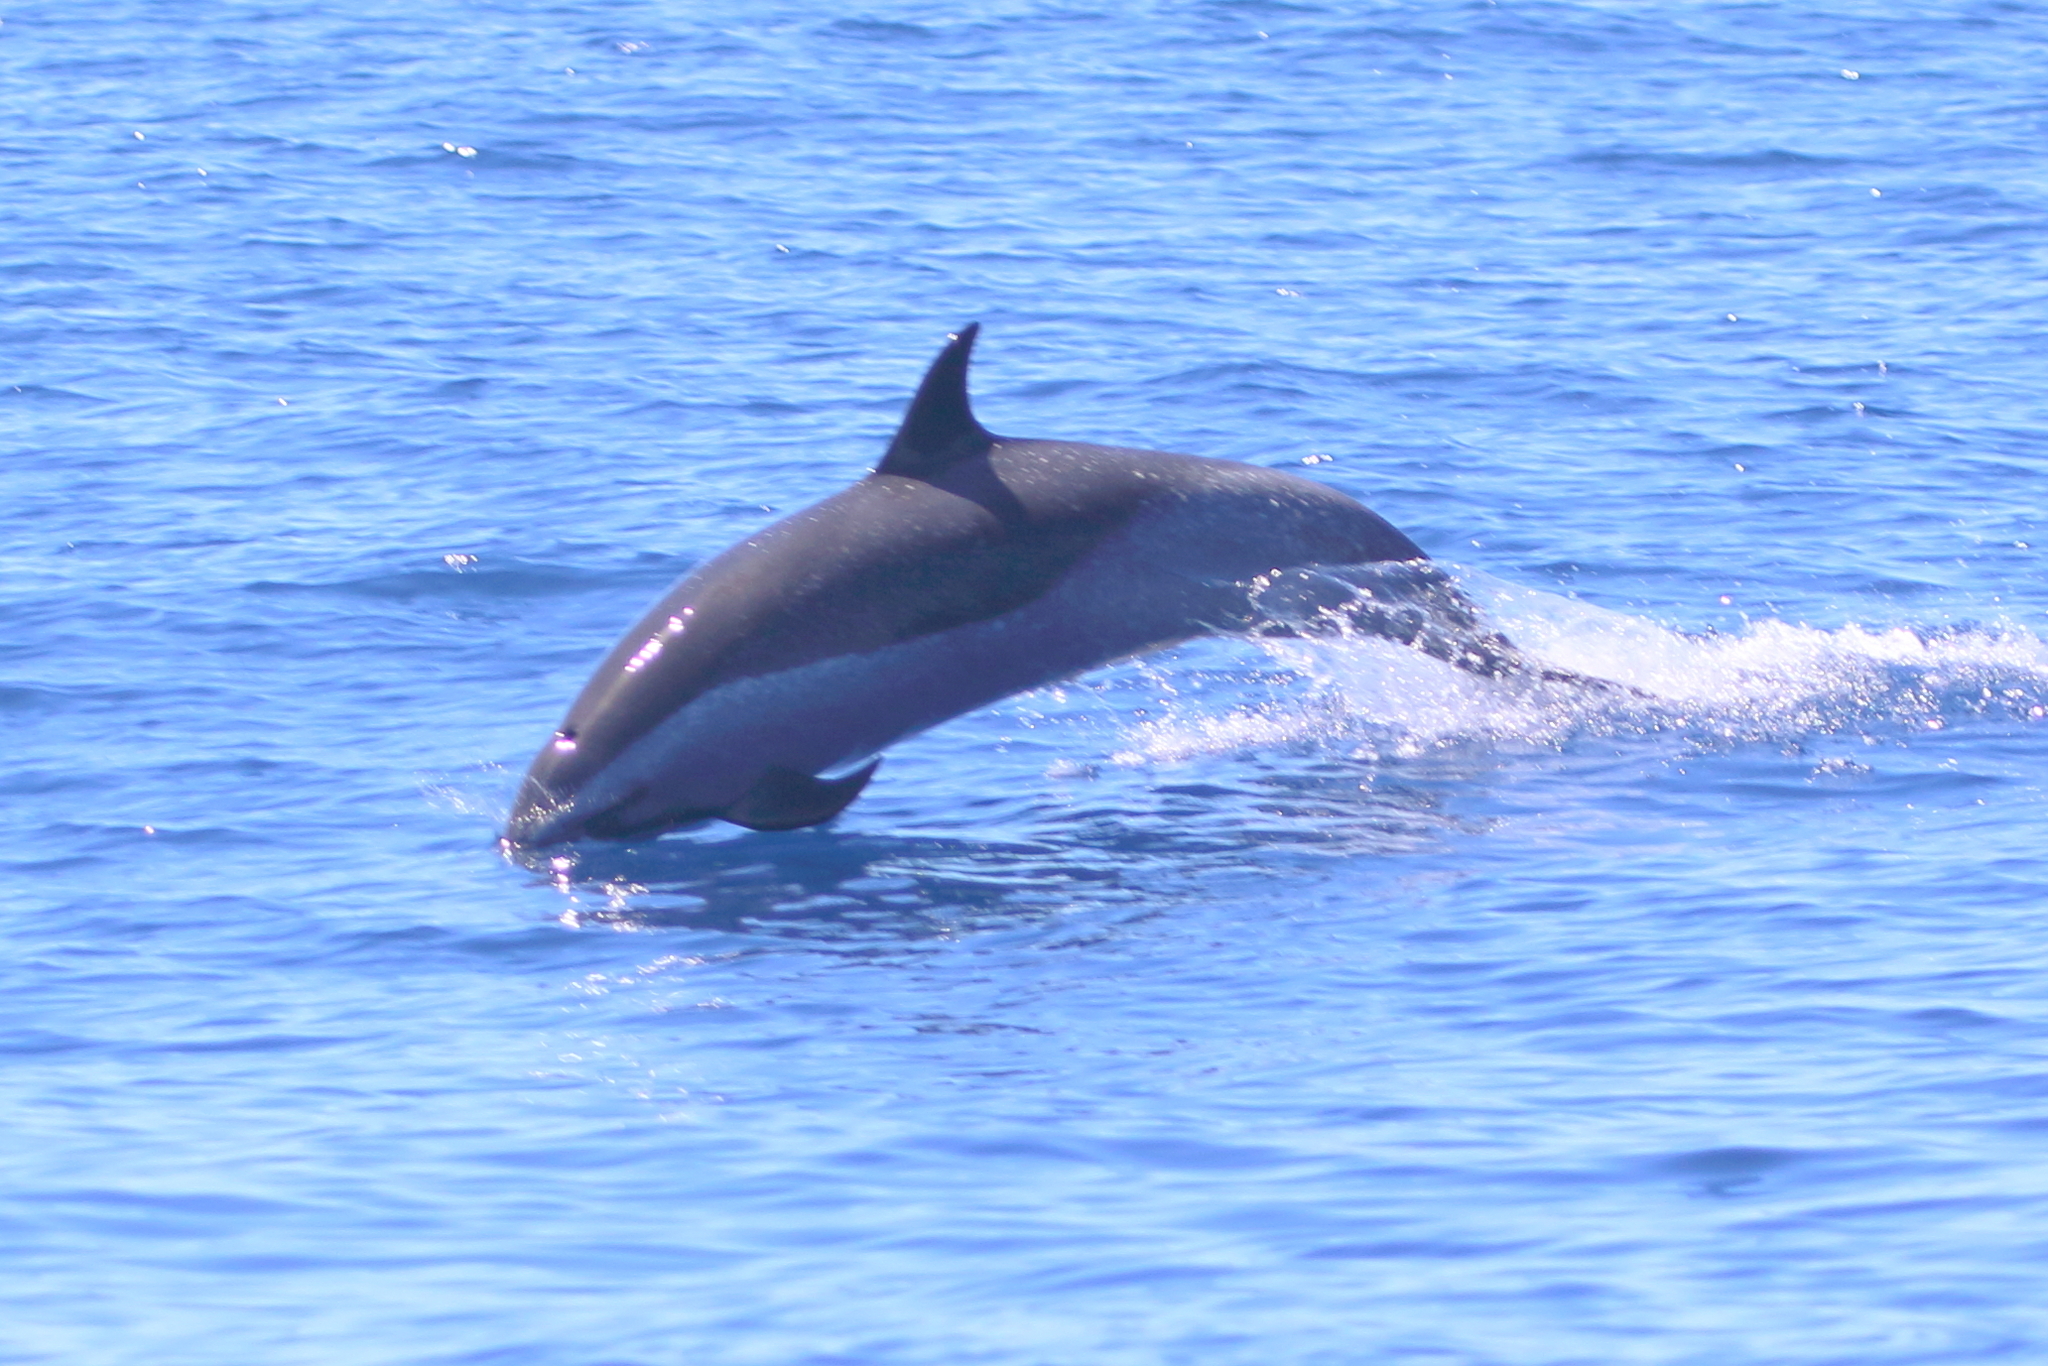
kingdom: Animalia
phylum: Chordata
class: Mammalia
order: Cetacea
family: Delphinidae
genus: Stenella
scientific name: Stenella attenuata
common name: Pantropical spotted dolphin
